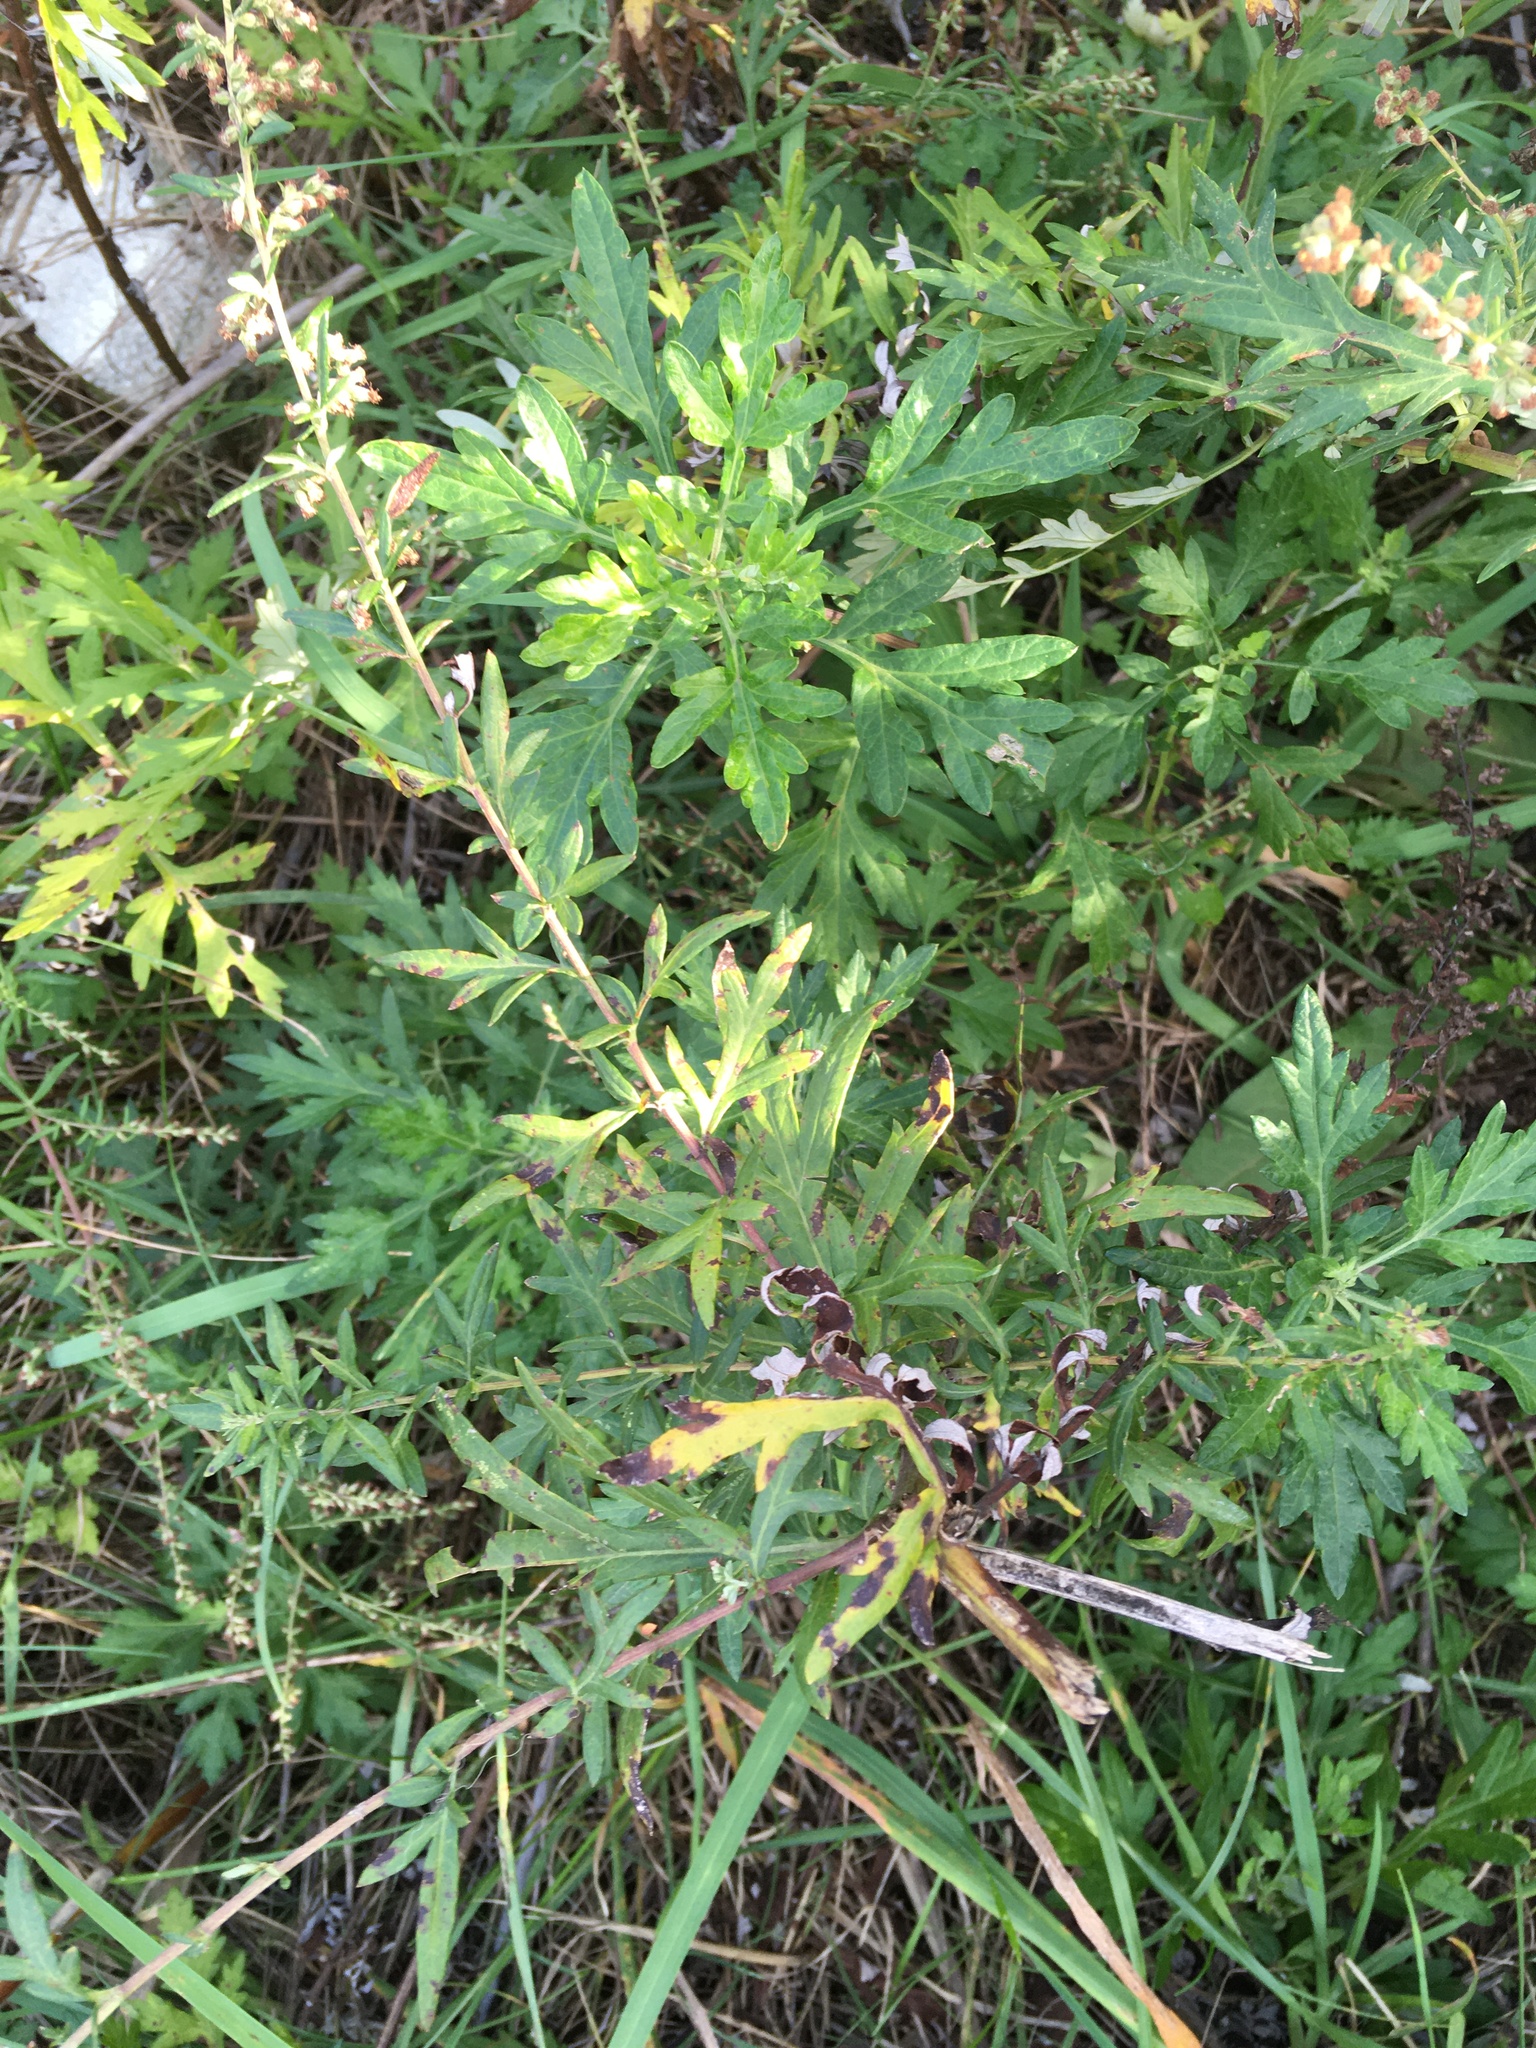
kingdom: Plantae
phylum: Tracheophyta
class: Magnoliopsida
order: Asterales
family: Asteraceae
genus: Artemisia
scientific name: Artemisia vulgaris
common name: Mugwort
